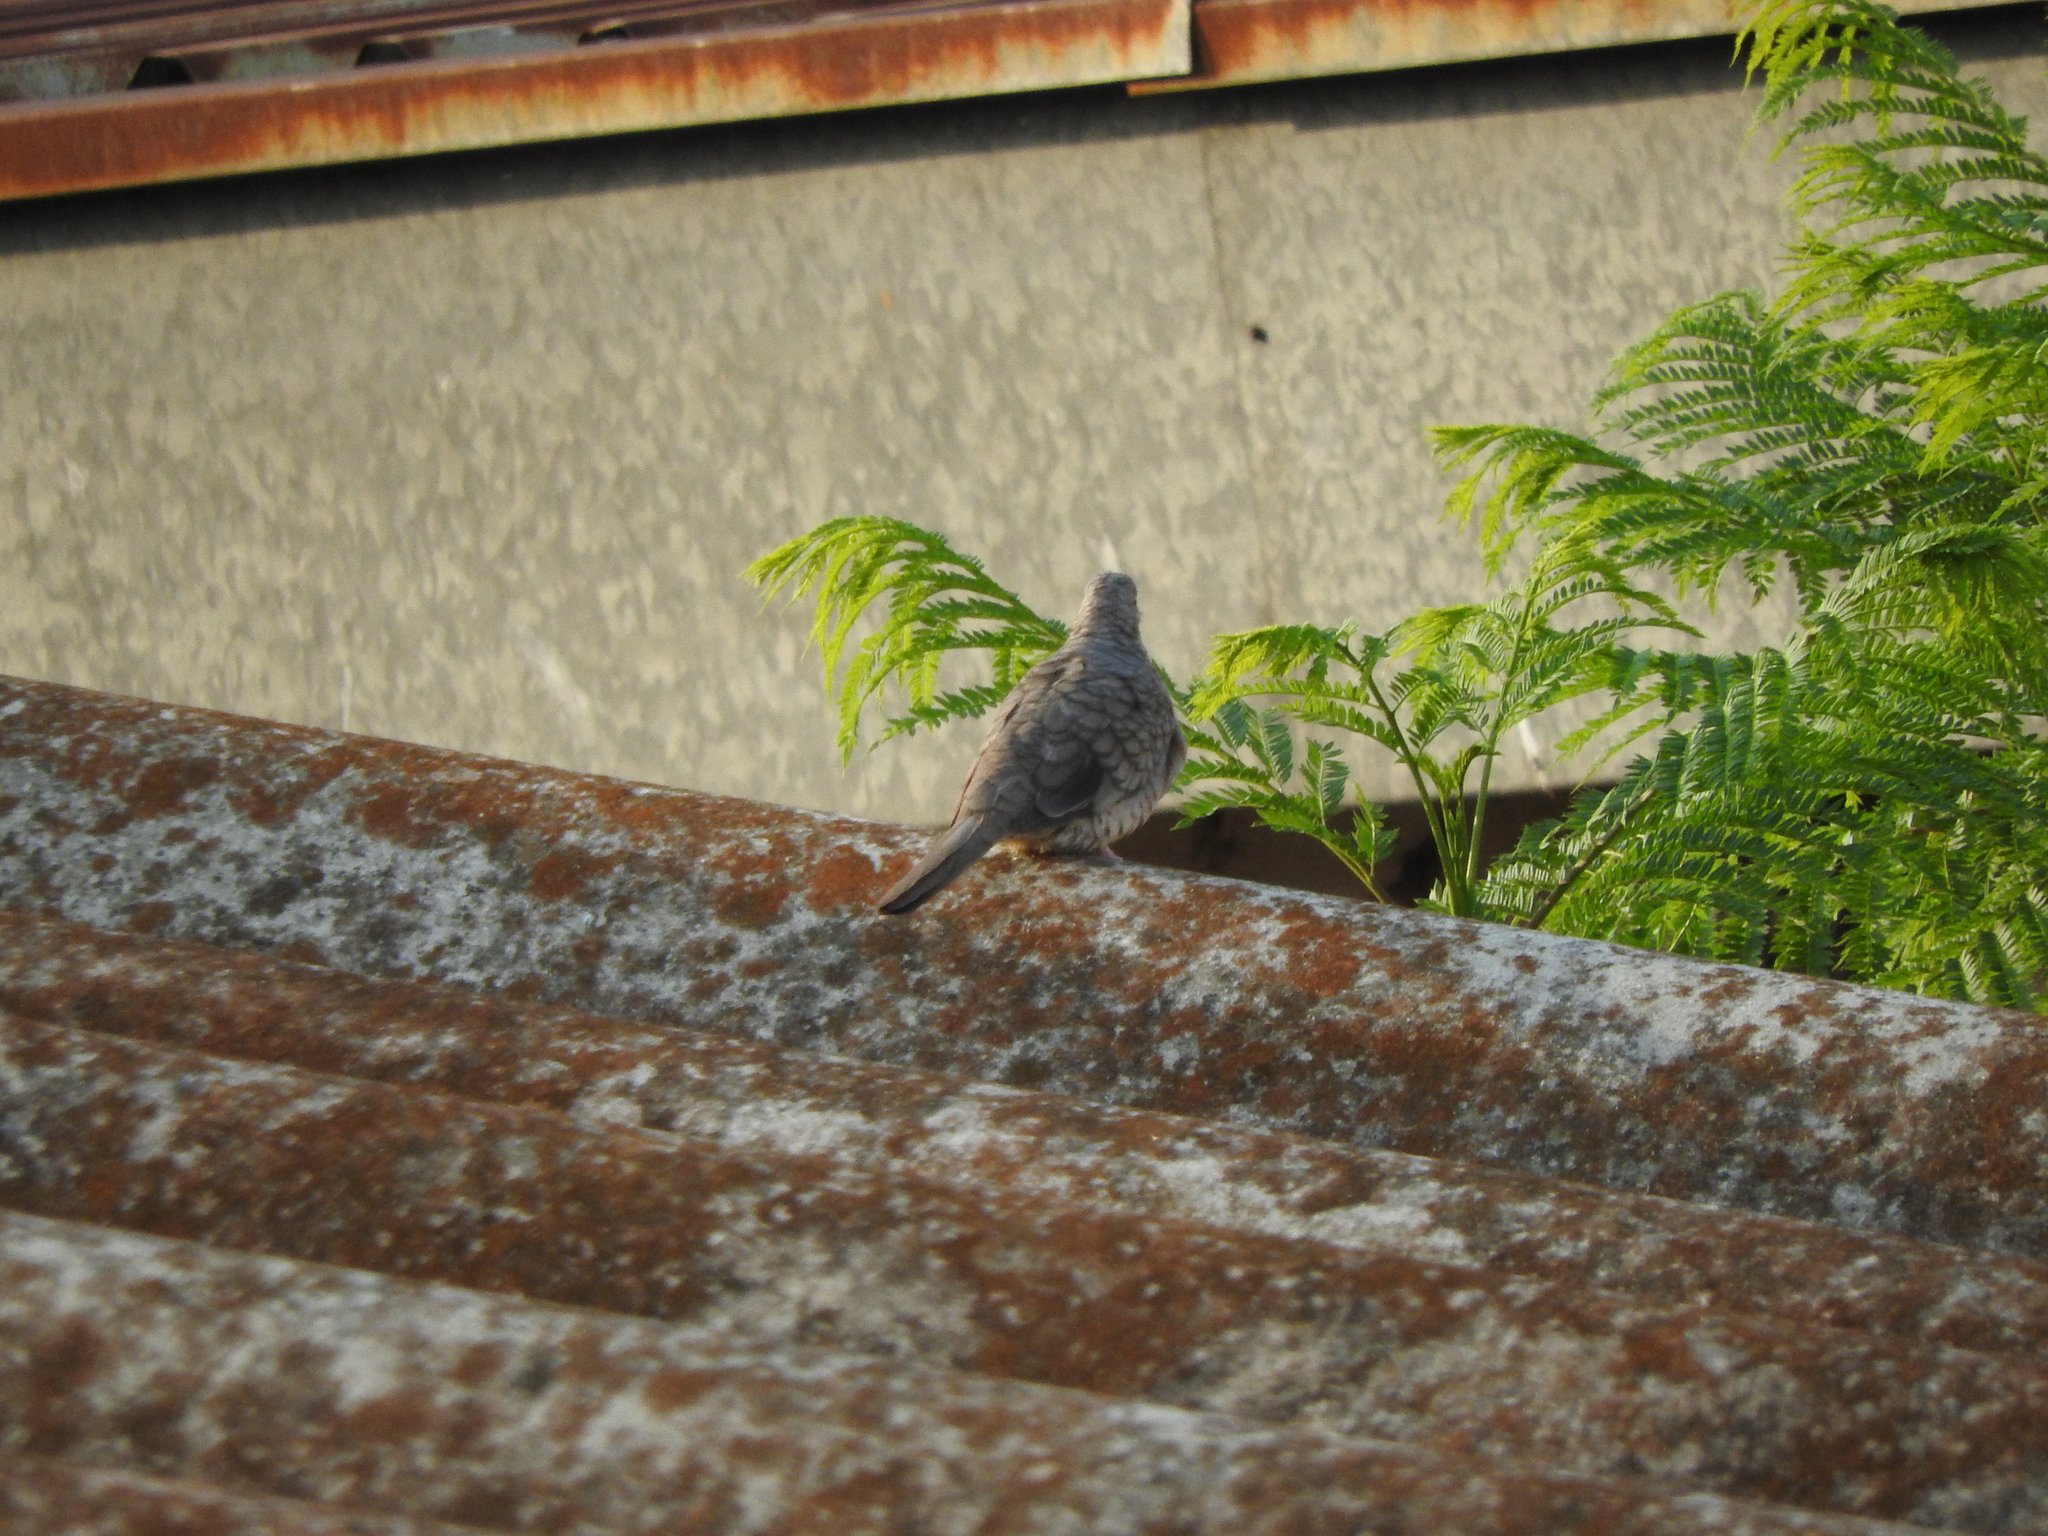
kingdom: Animalia
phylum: Chordata
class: Aves
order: Columbiformes
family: Columbidae
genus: Columbina
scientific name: Columbina inca
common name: Inca dove
